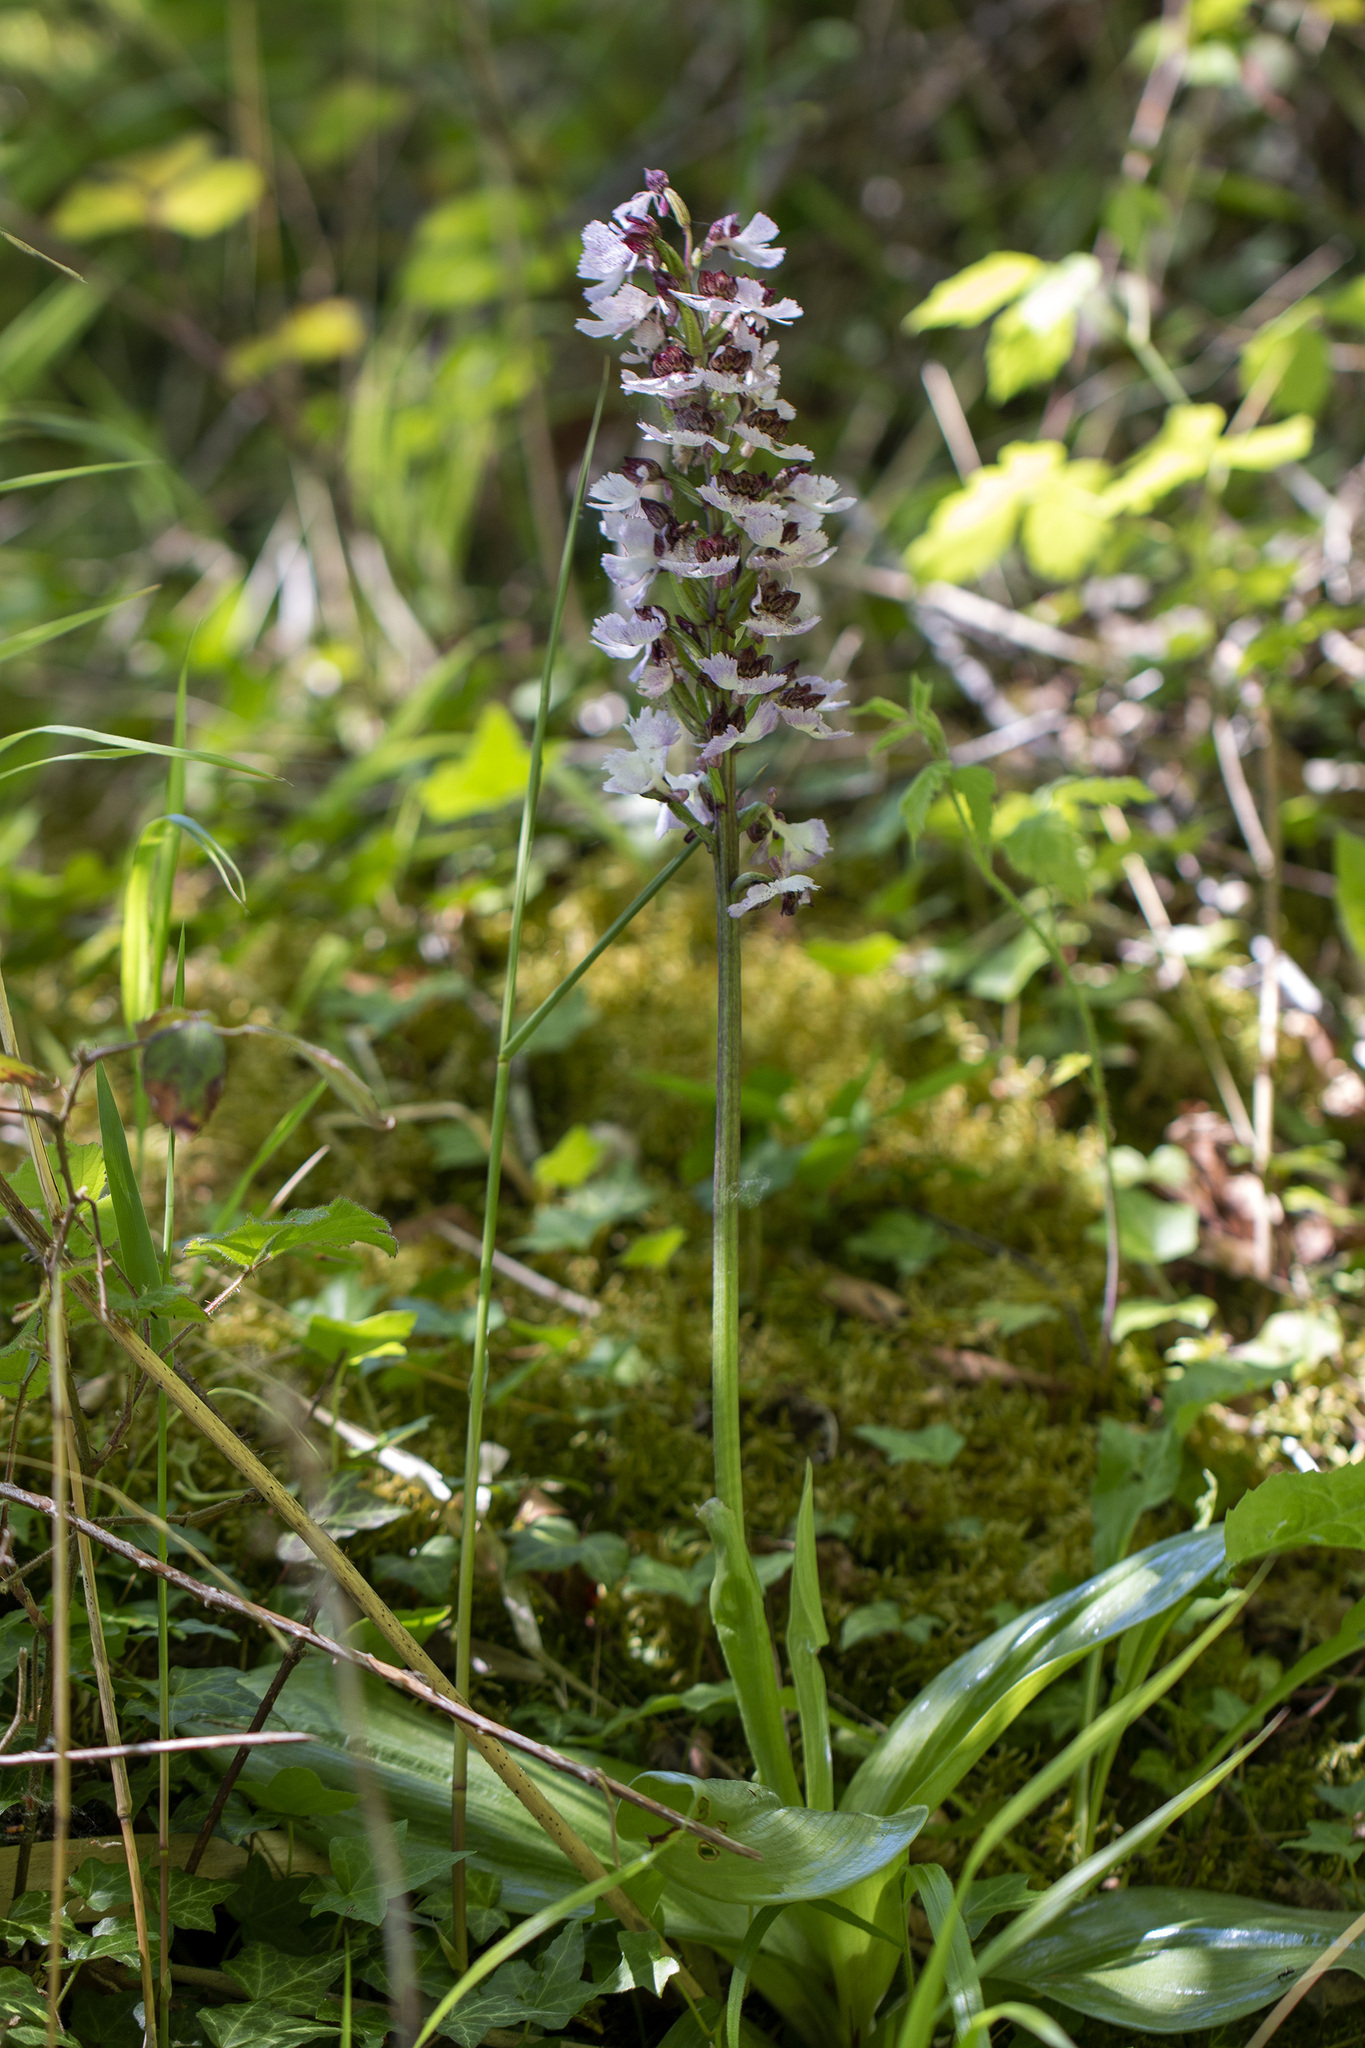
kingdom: Plantae
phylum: Tracheophyta
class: Liliopsida
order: Asparagales
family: Orchidaceae
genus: Orchis
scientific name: Orchis purpurea
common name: Lady orchid
